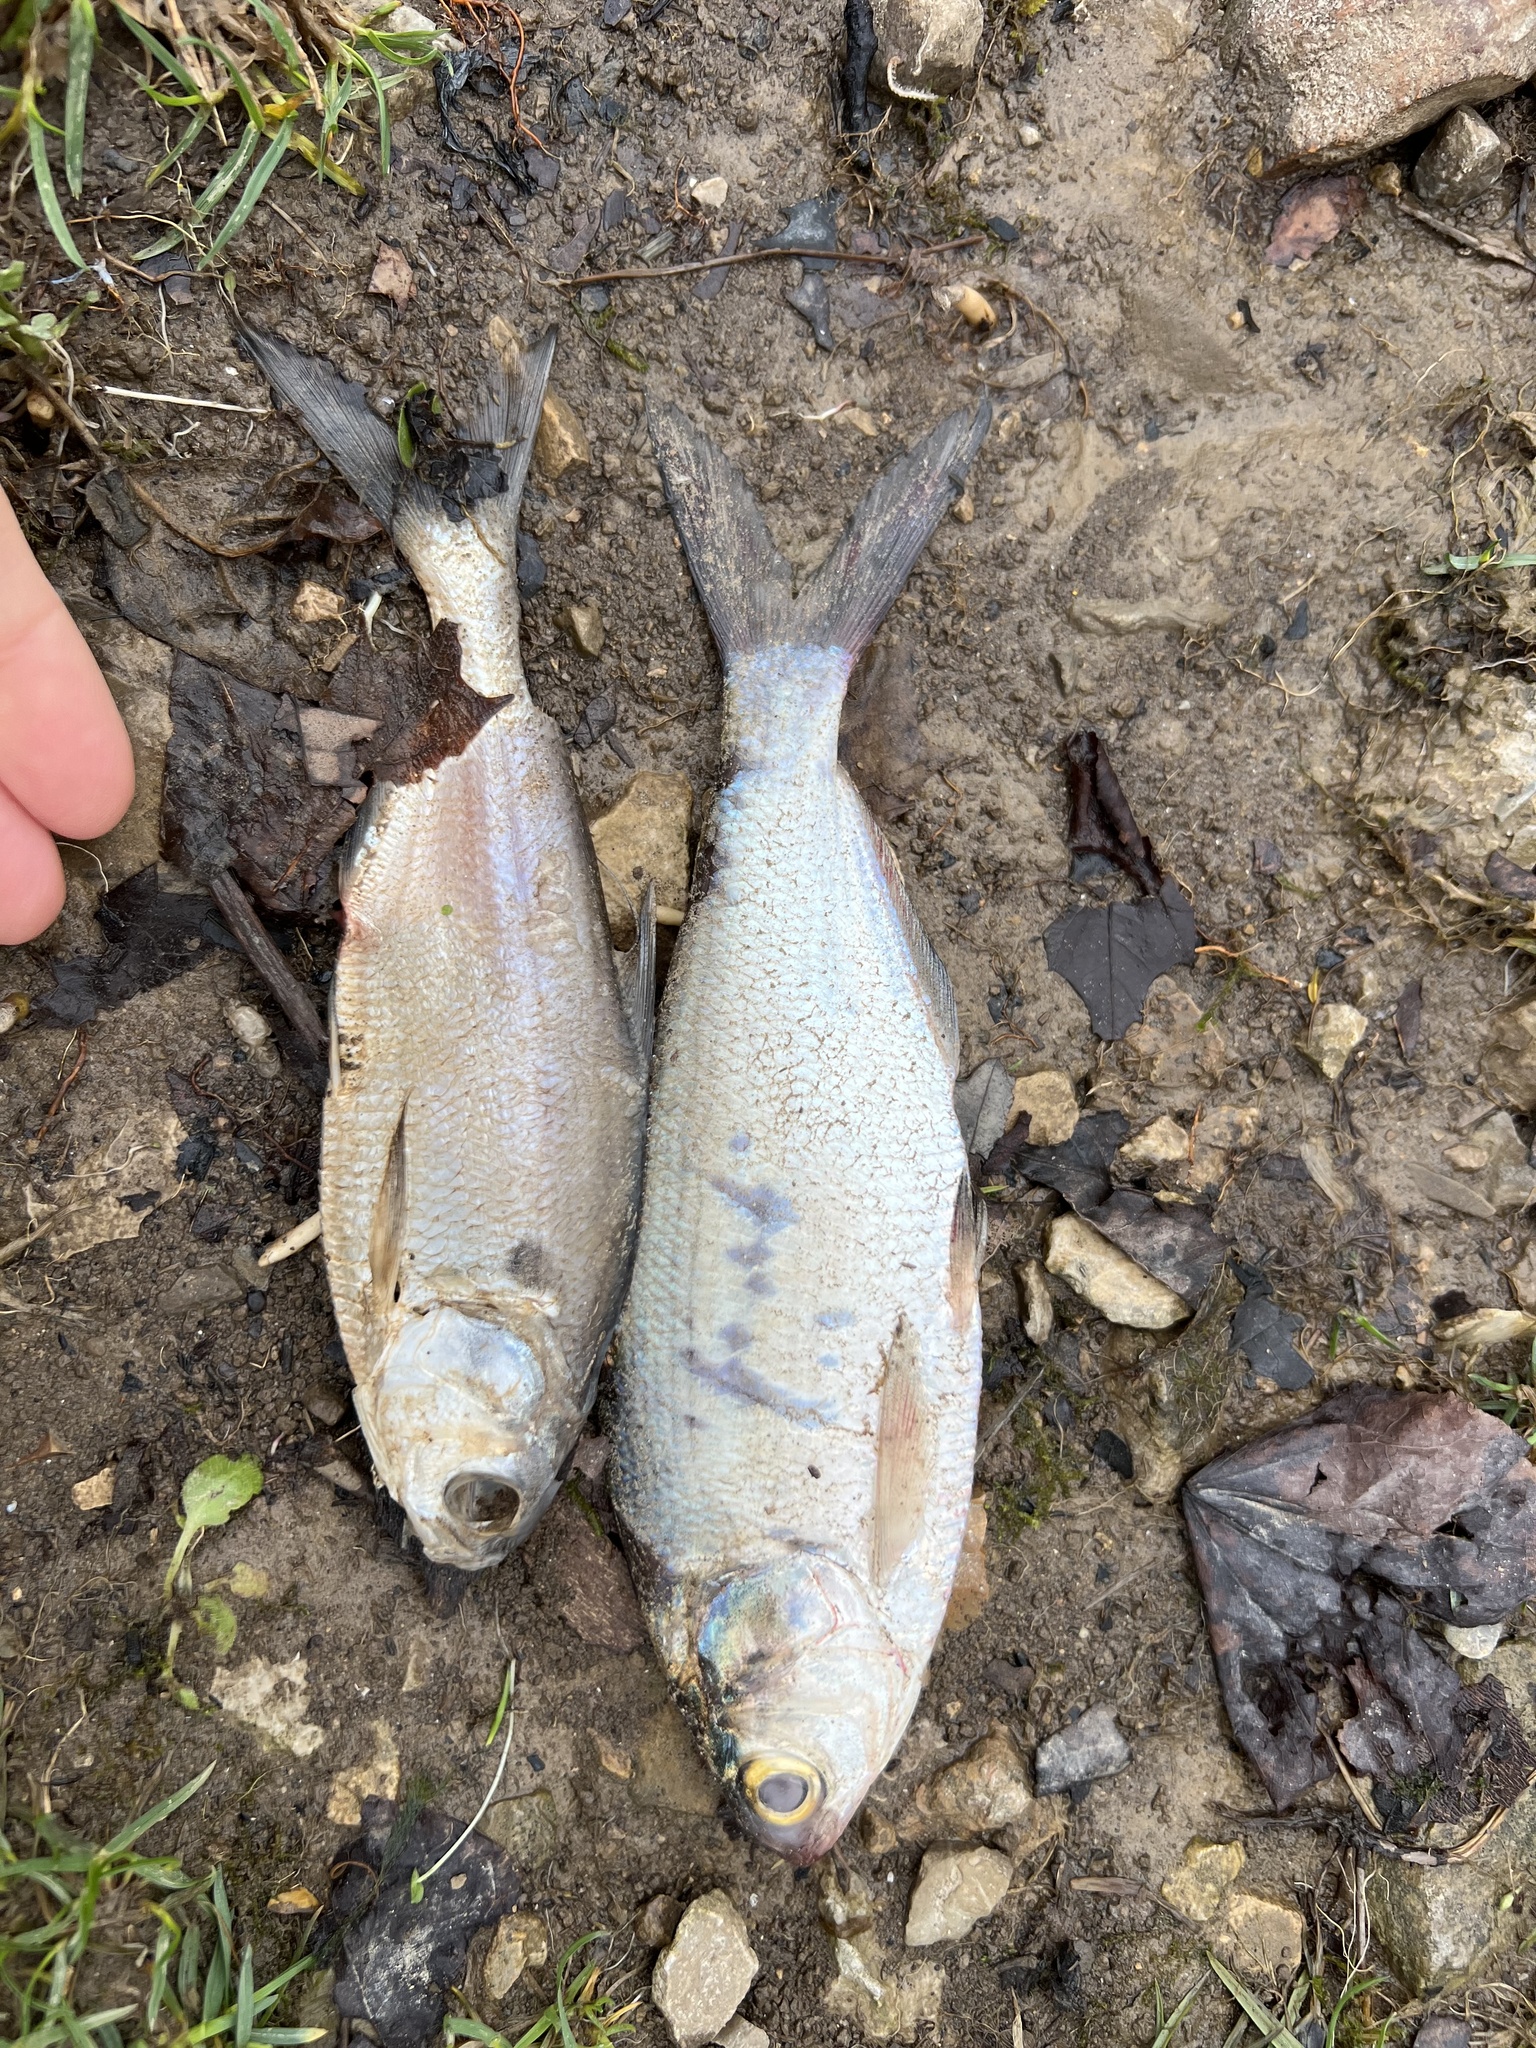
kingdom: Animalia
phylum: Chordata
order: Clupeiformes
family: Clupeidae
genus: Dorosoma
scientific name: Dorosoma cepedianum
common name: Gizzard shad
